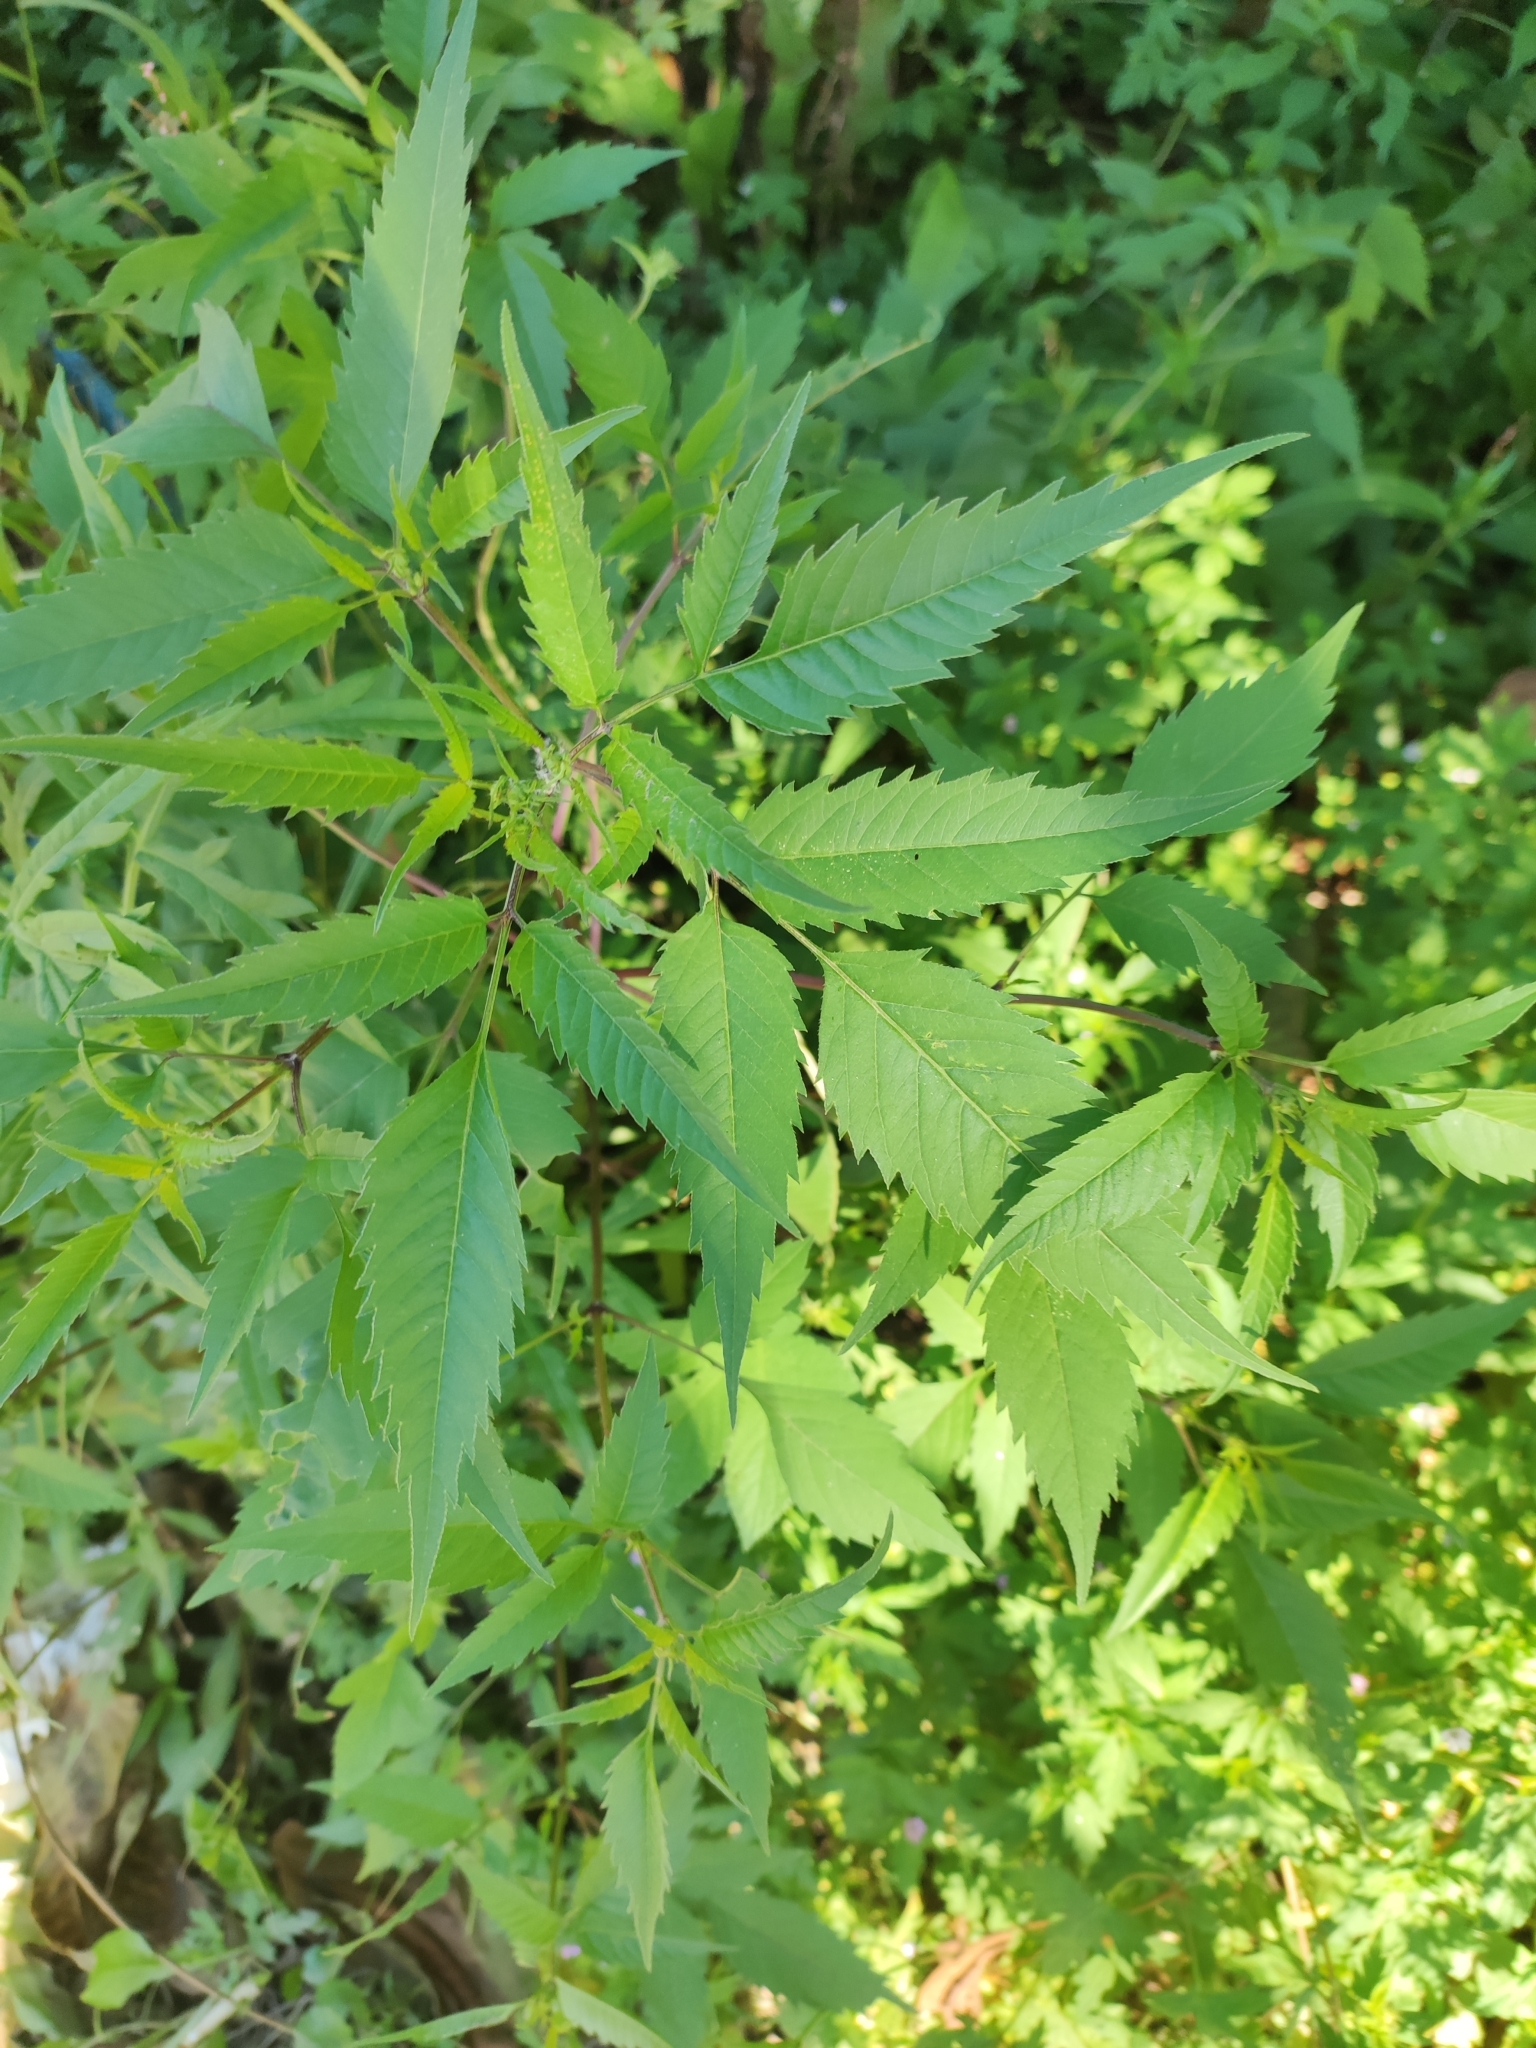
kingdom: Plantae
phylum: Tracheophyta
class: Magnoliopsida
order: Asterales
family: Asteraceae
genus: Bidens
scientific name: Bidens frondosa
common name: Beggarticks
